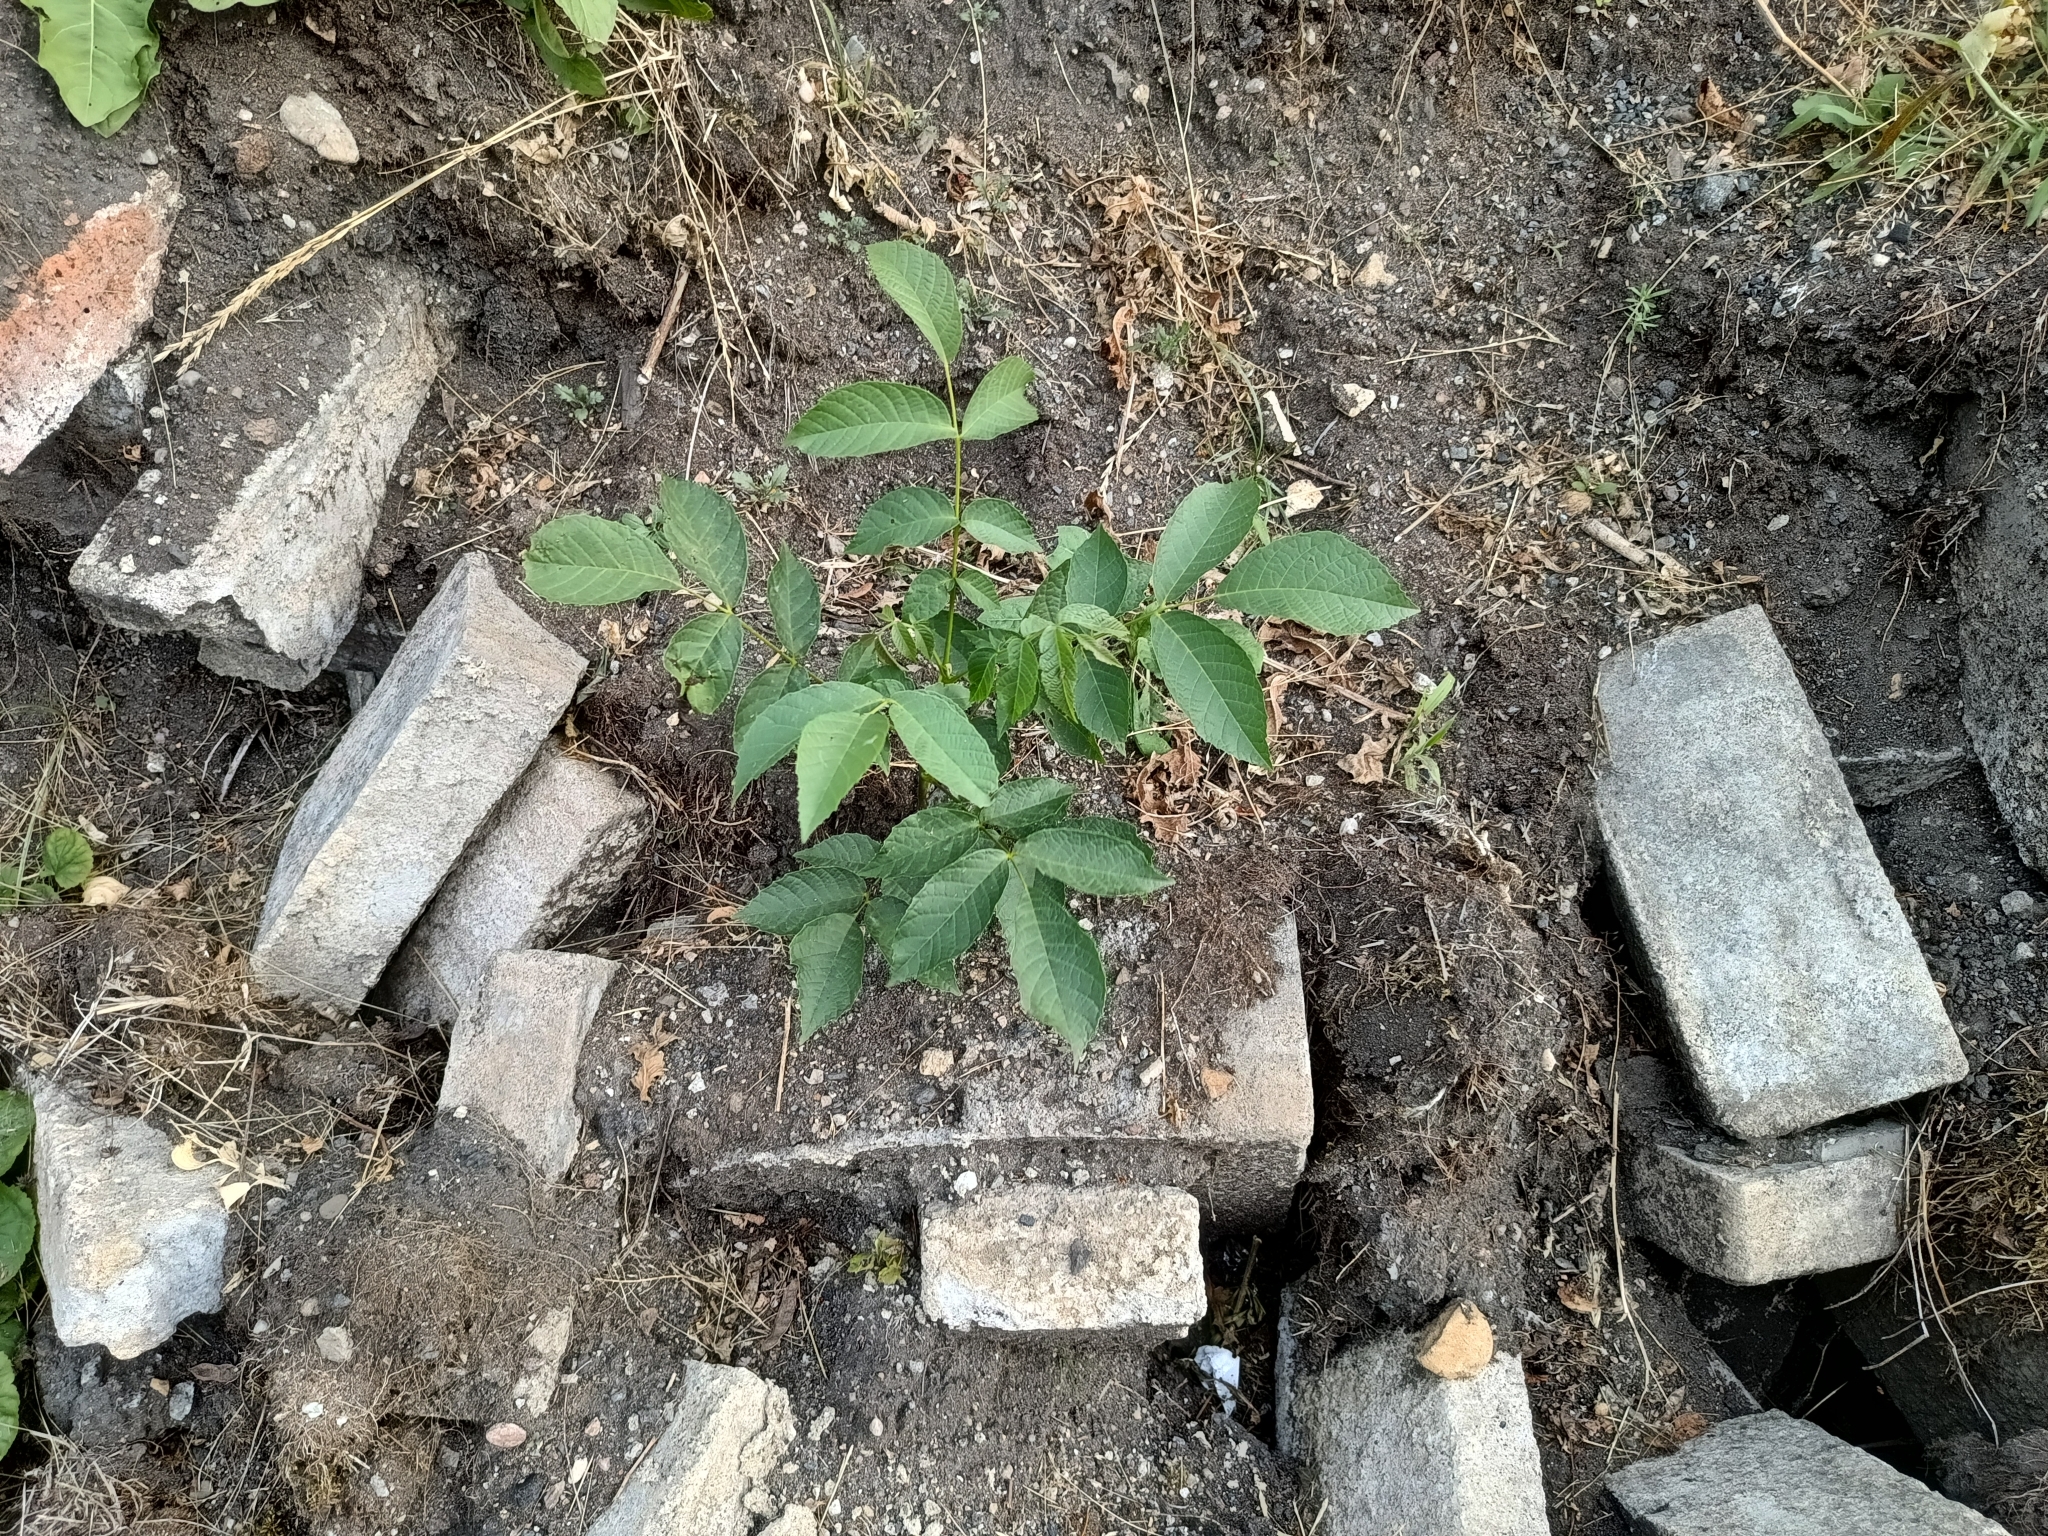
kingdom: Plantae
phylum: Tracheophyta
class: Magnoliopsida
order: Fagales
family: Juglandaceae
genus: Juglans
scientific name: Juglans regia
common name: Walnut
